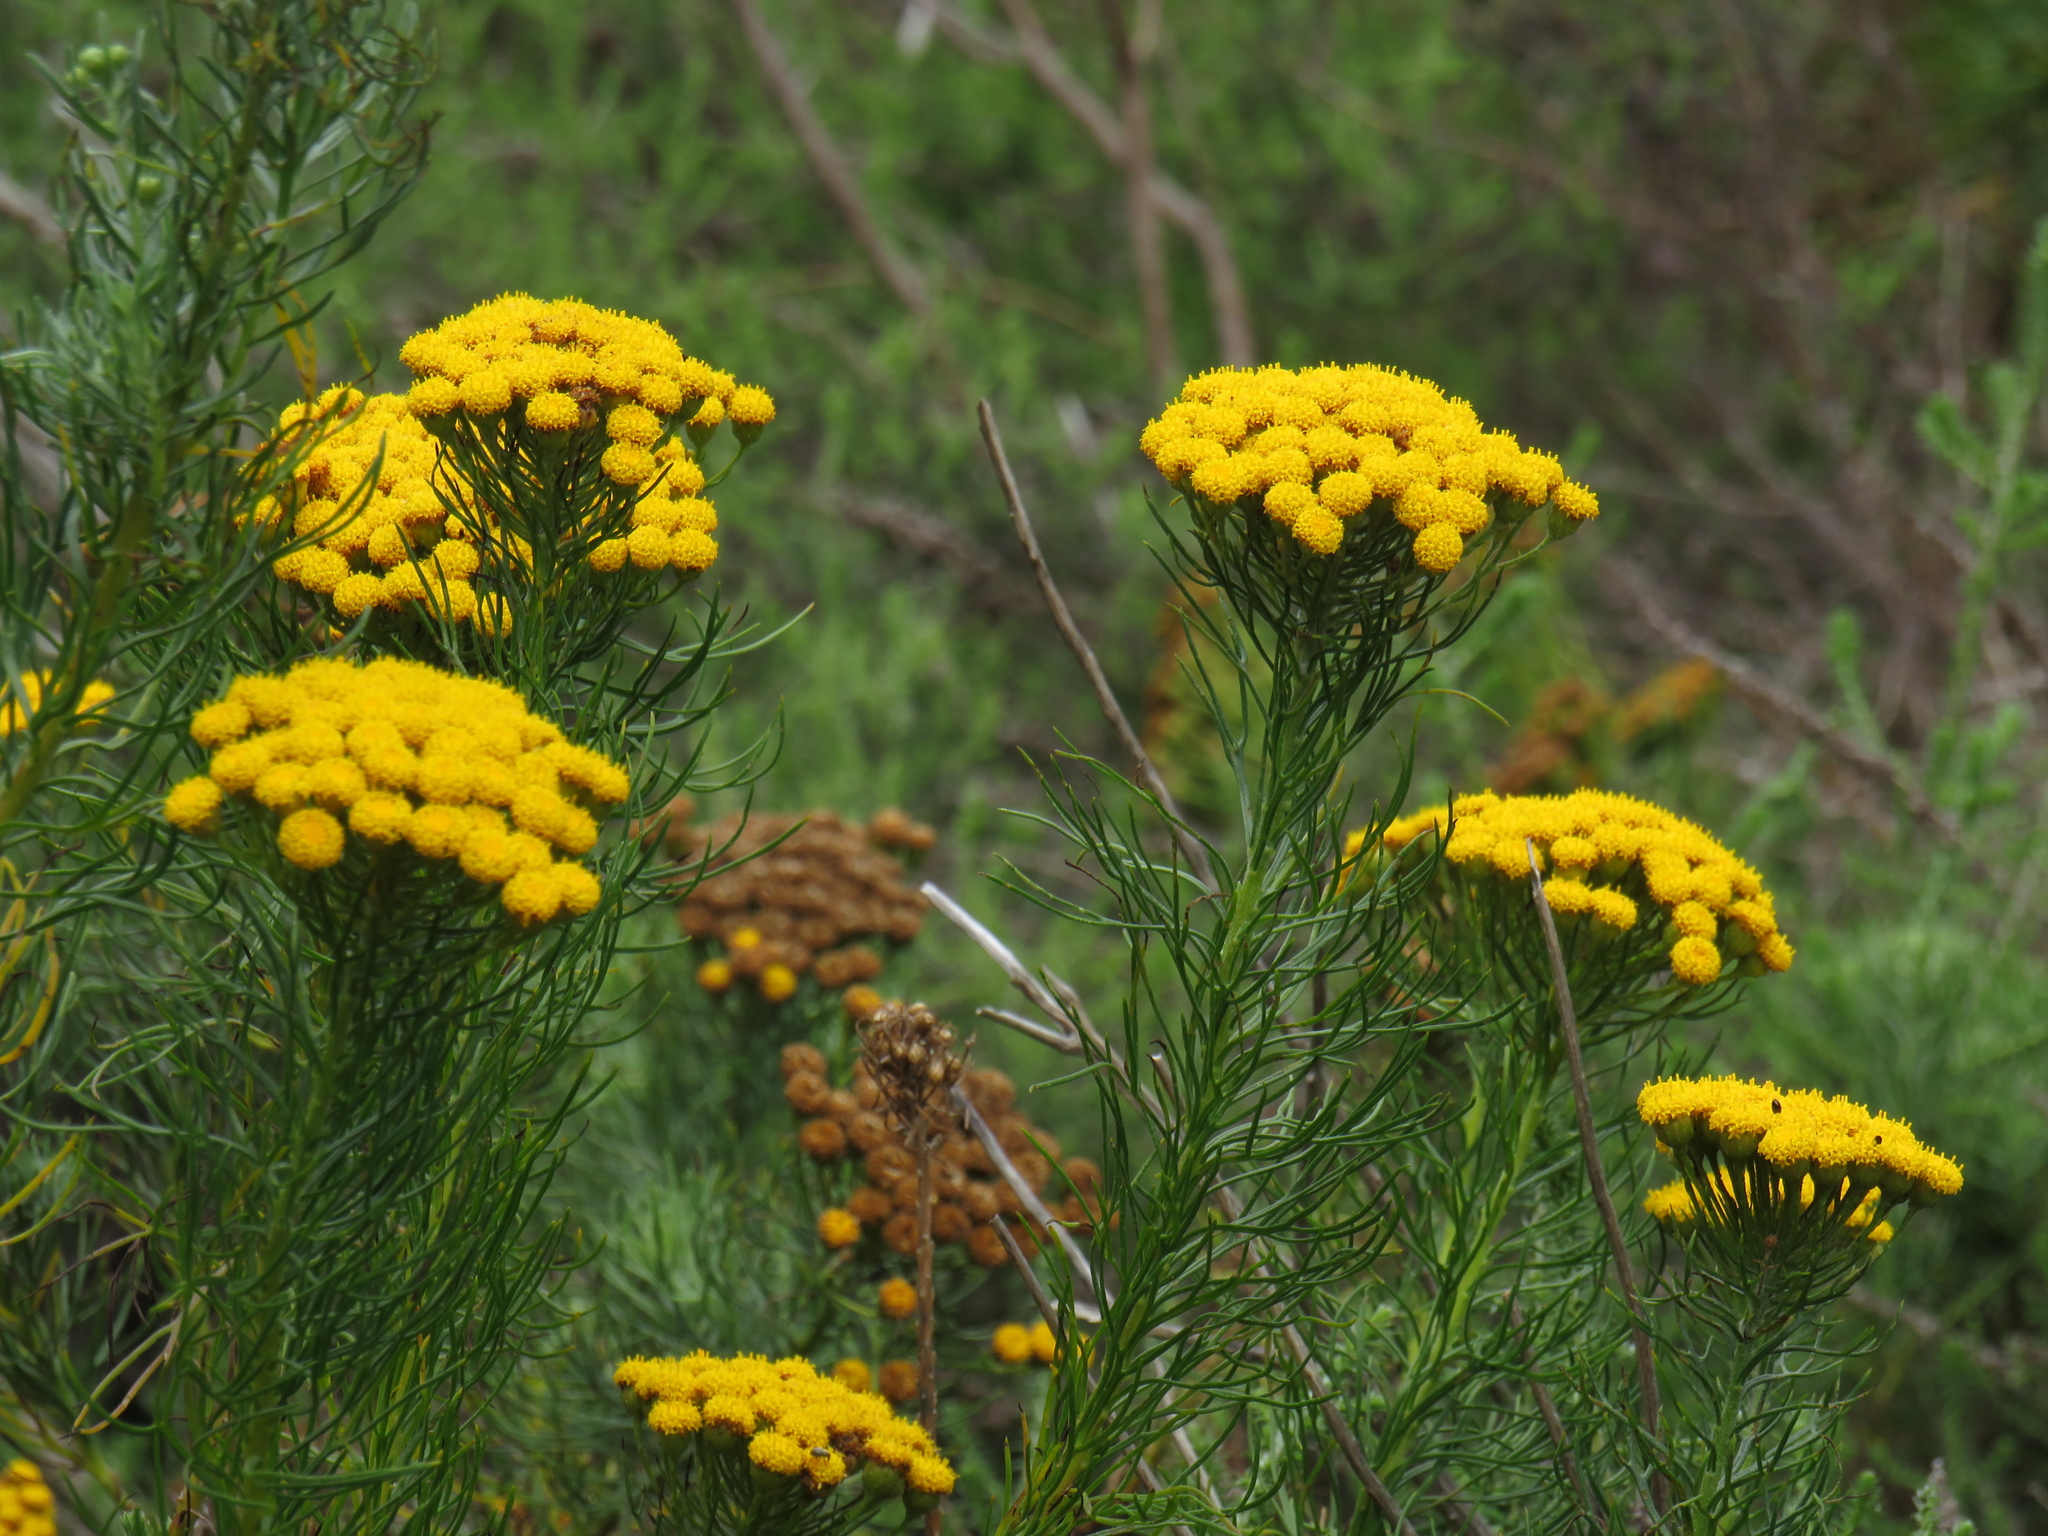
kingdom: Plantae
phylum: Tracheophyta
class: Magnoliopsida
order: Asterales
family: Asteraceae
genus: Athanasia
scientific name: Athanasia crithmifolia
